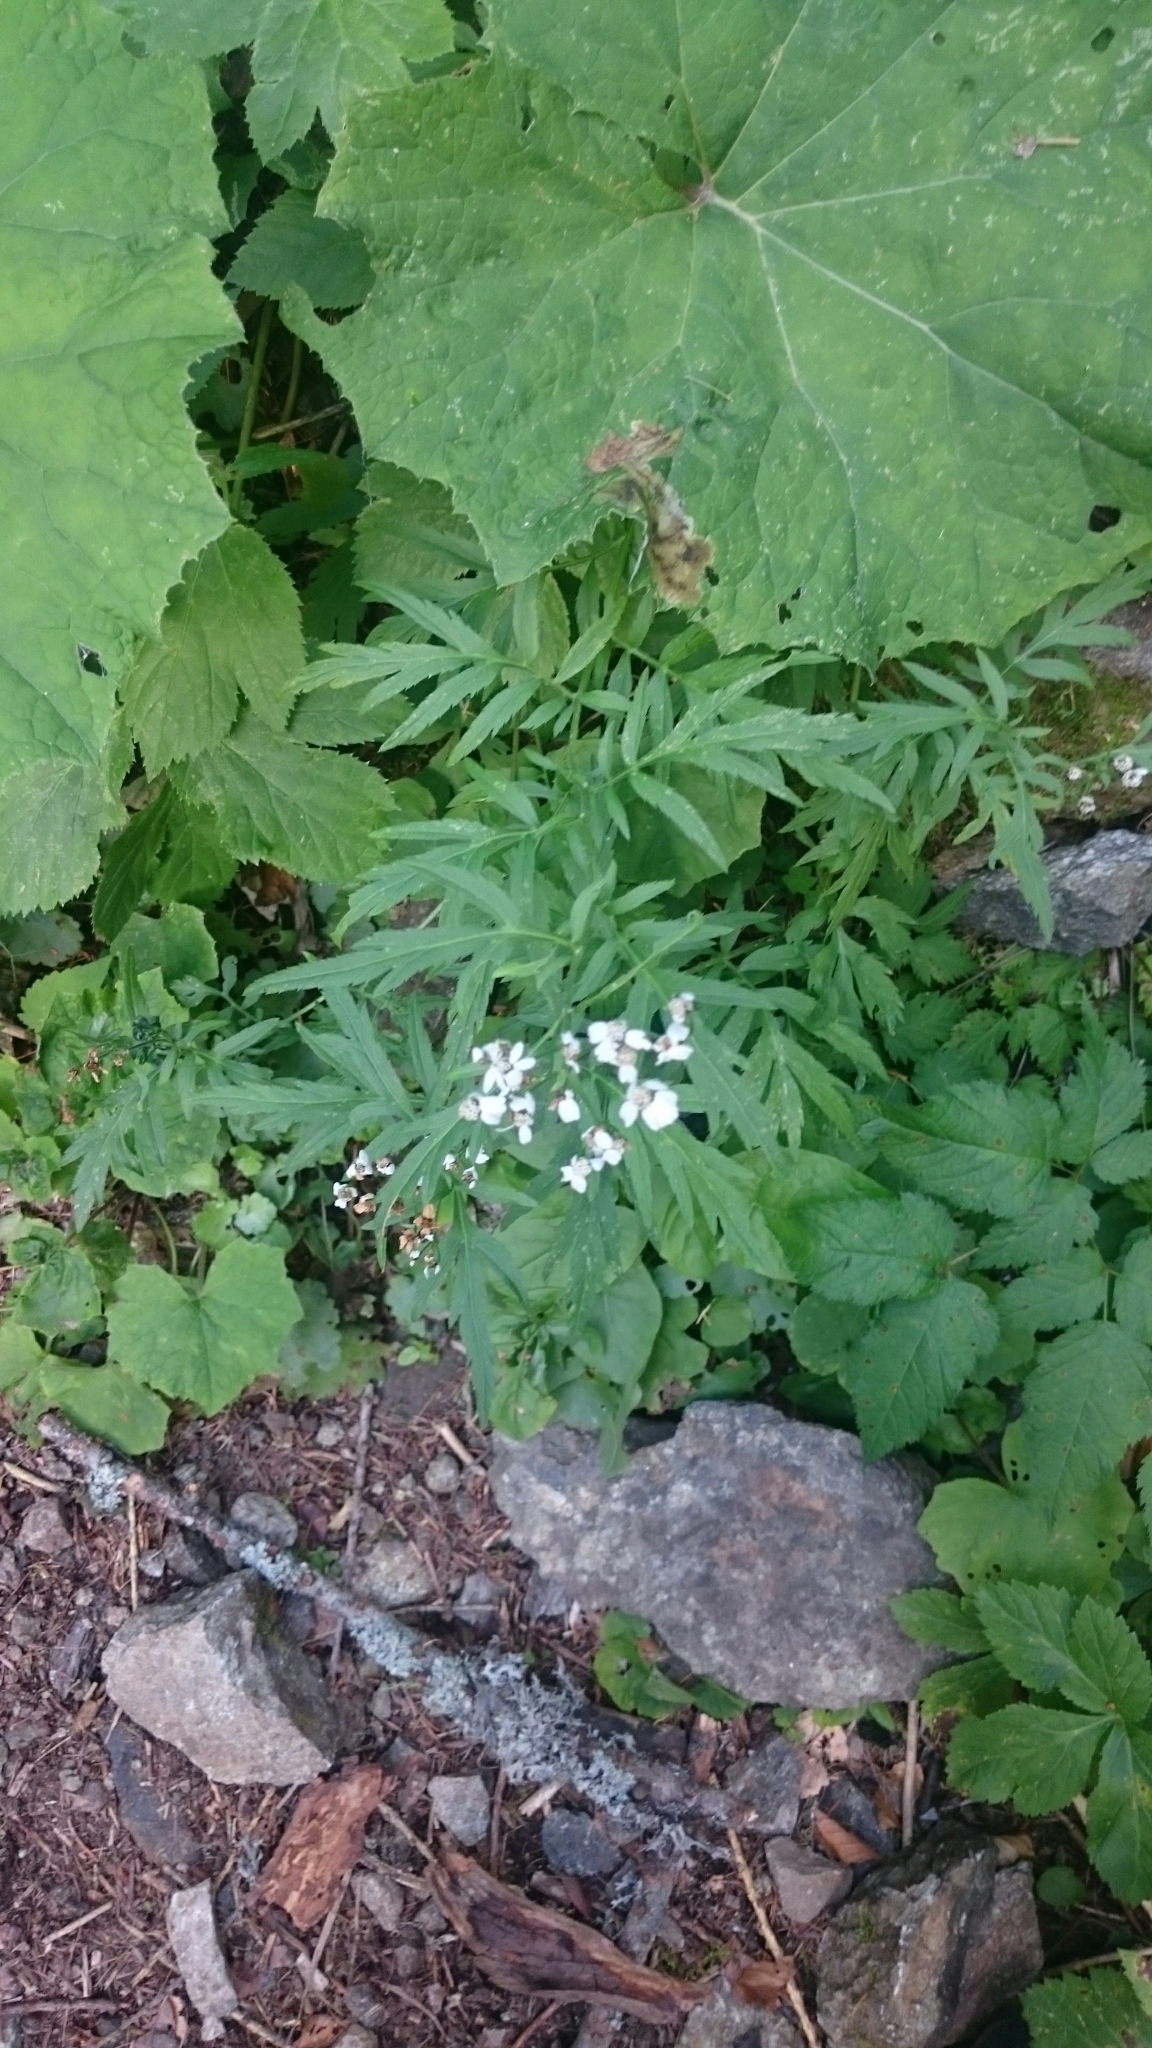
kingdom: Plantae
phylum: Tracheophyta
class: Magnoliopsida
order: Asterales
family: Asteraceae
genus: Achillea
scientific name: Achillea macrophylla
